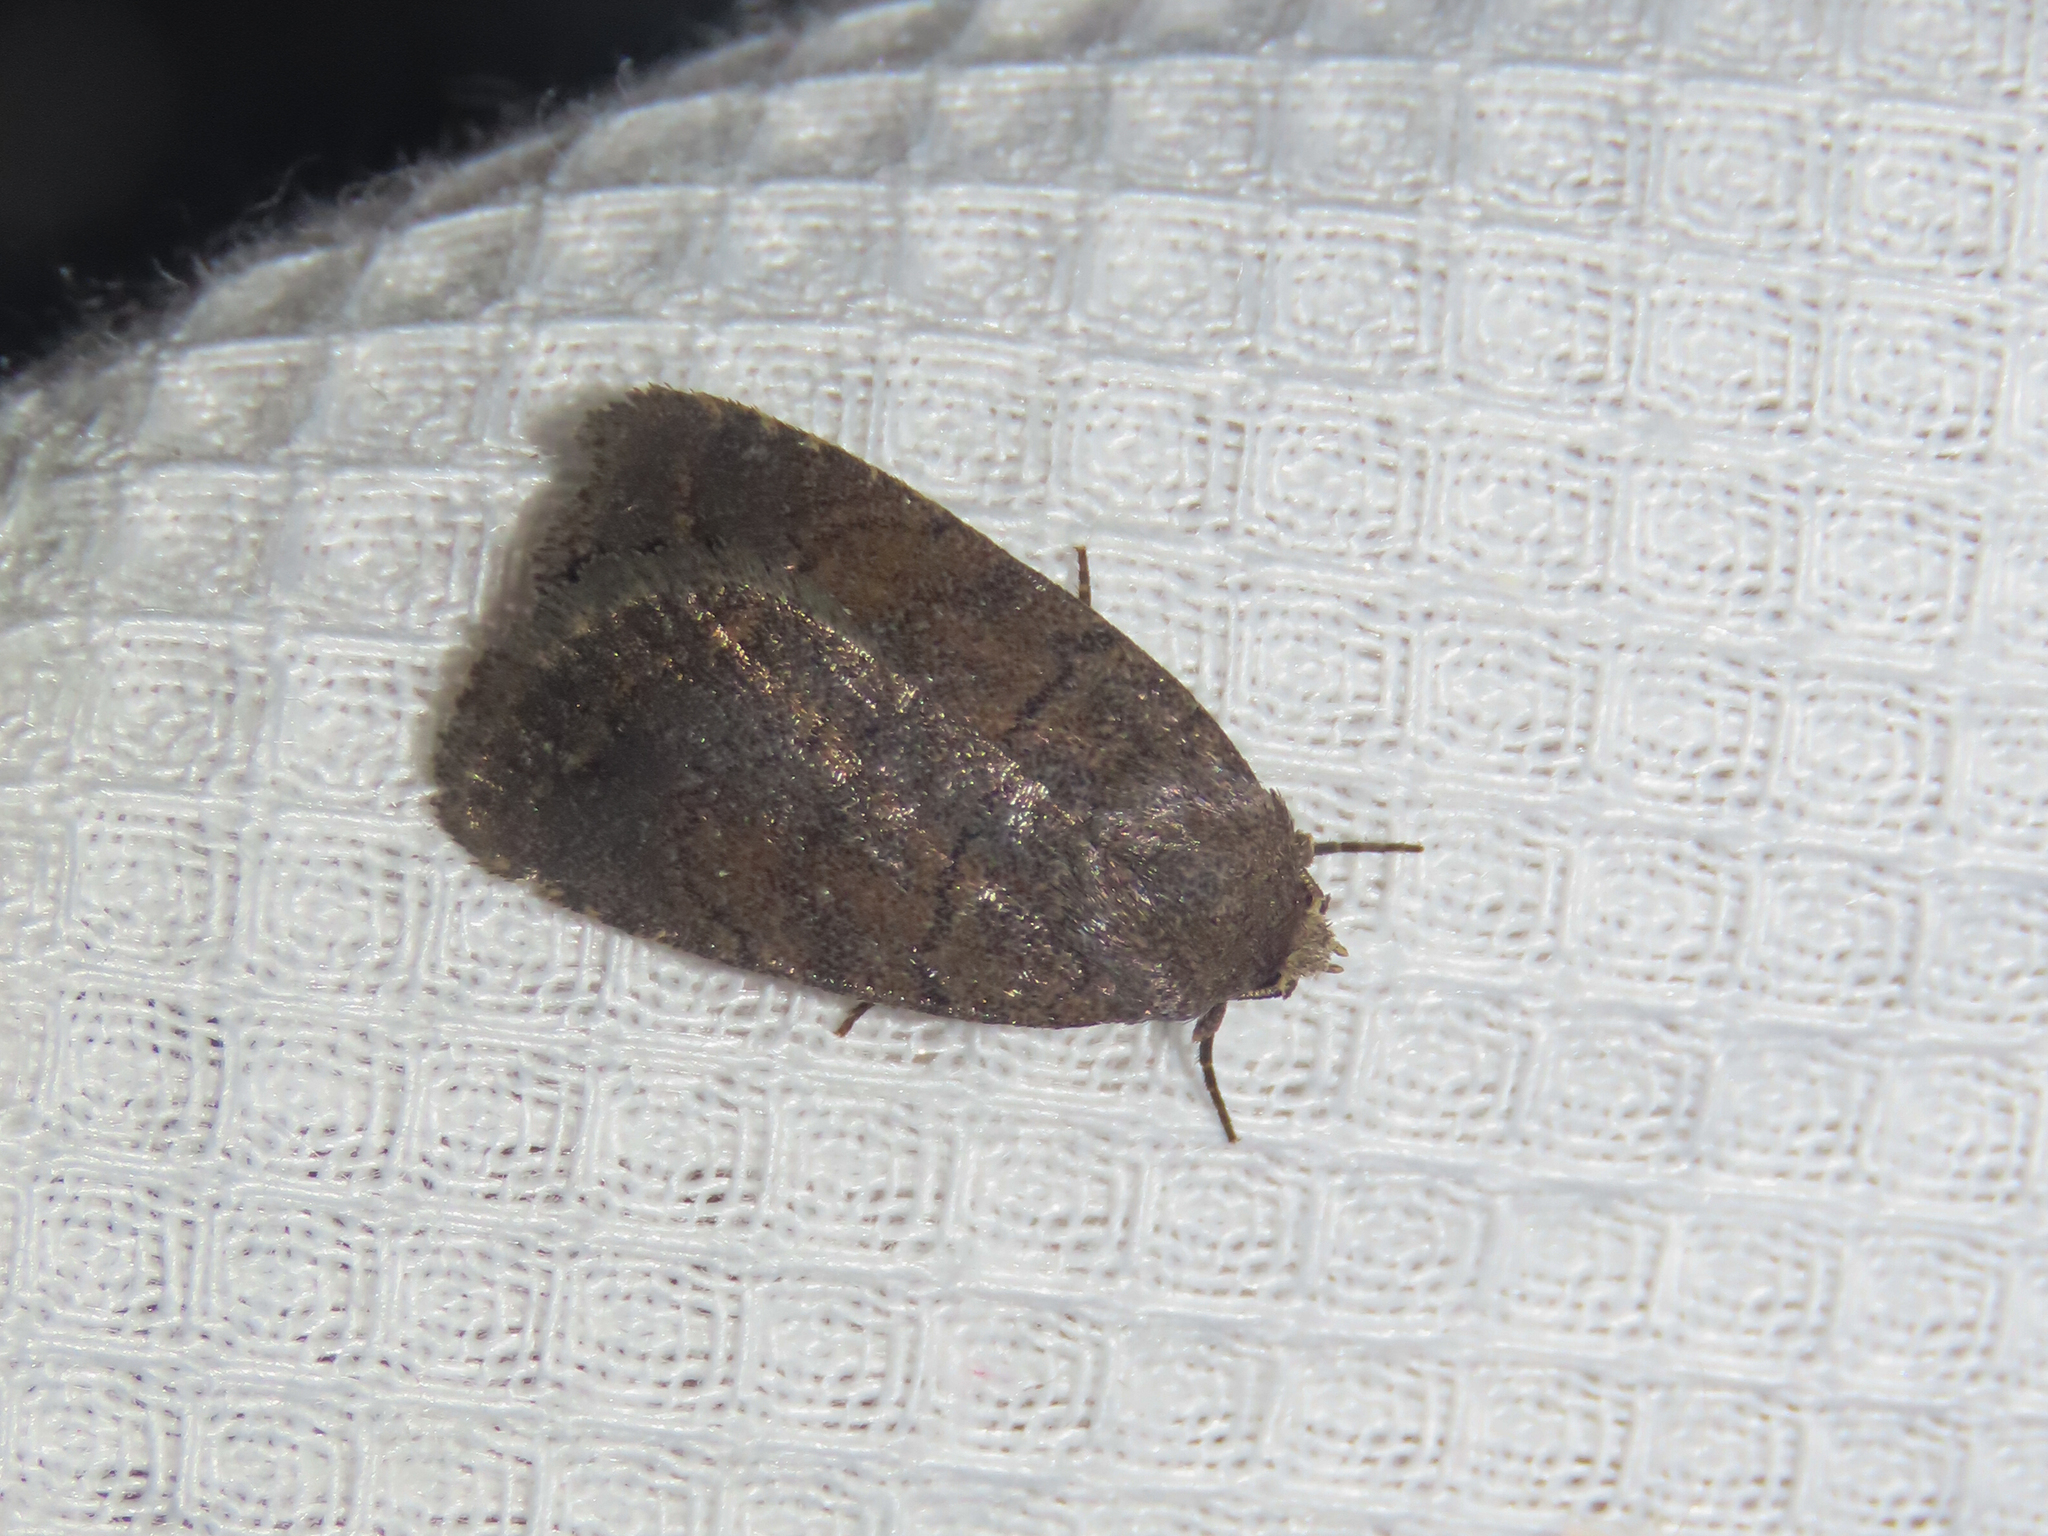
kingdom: Animalia
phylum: Arthropoda
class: Insecta
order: Lepidoptera
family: Noctuidae
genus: Athetis
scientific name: Athetis tarda
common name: Slowpoke moth
